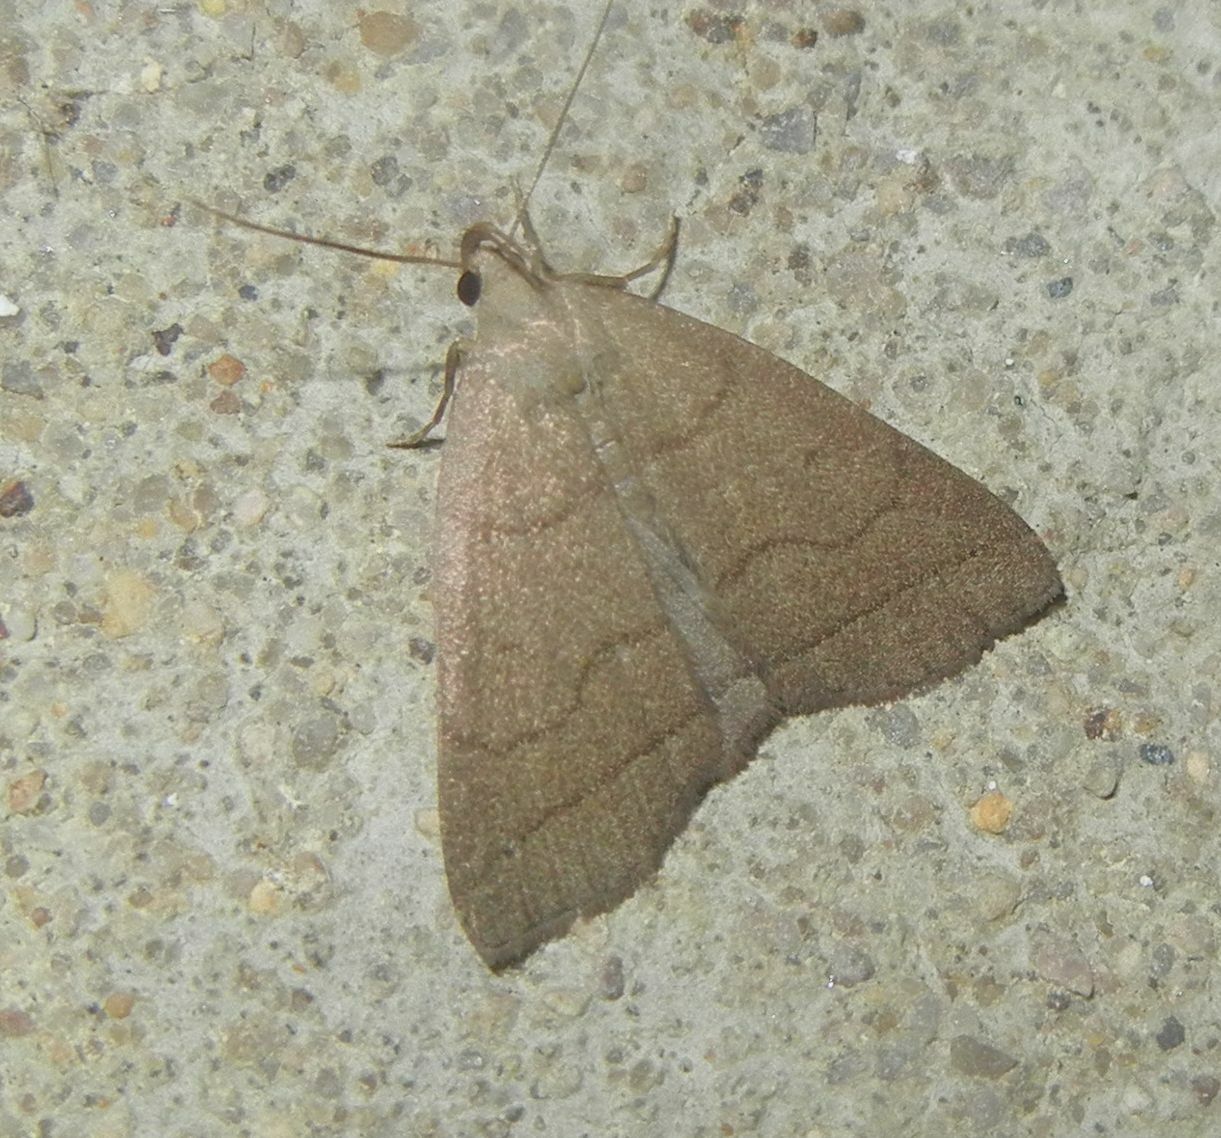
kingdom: Animalia
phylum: Arthropoda
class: Insecta
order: Lepidoptera
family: Erebidae
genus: Herminia
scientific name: Herminia tarsipennalis
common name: Fan-foot
